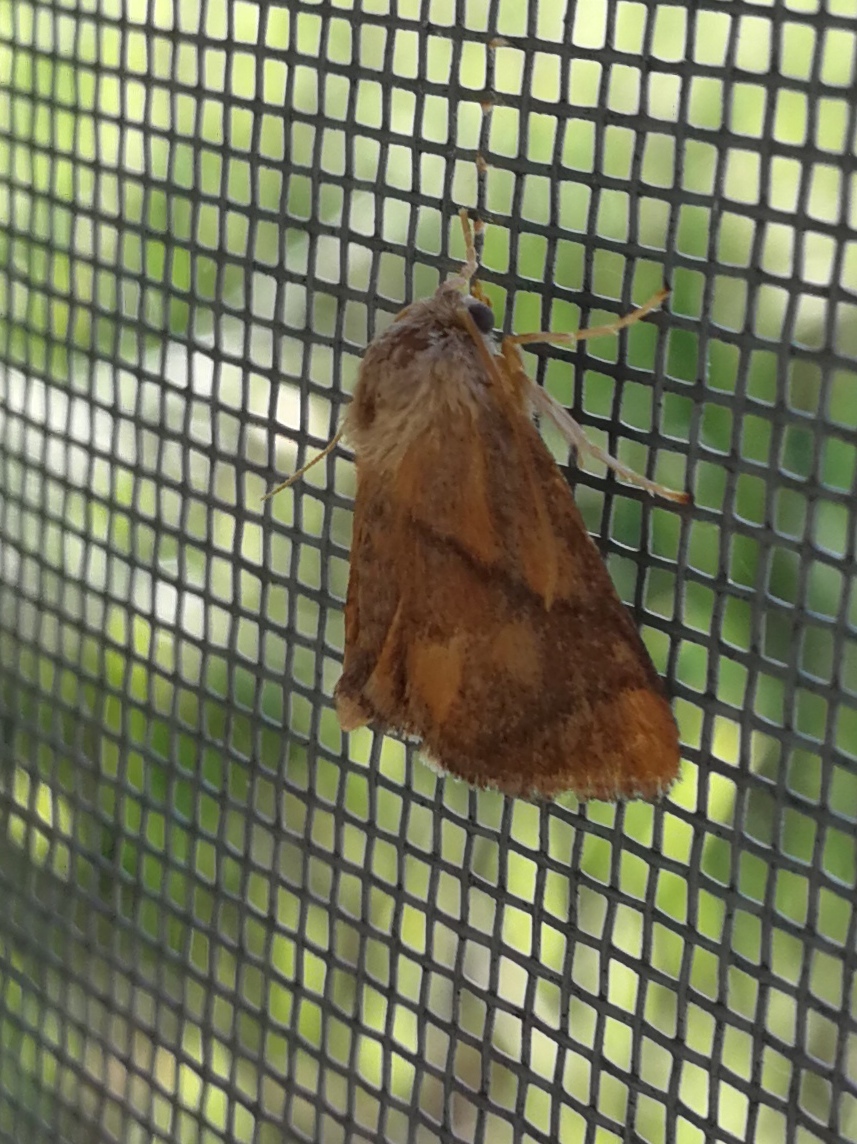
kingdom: Animalia
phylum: Arthropoda
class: Insecta
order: Lepidoptera
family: Limacodidae
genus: Apoda
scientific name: Apoda limacodes
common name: Festoon
